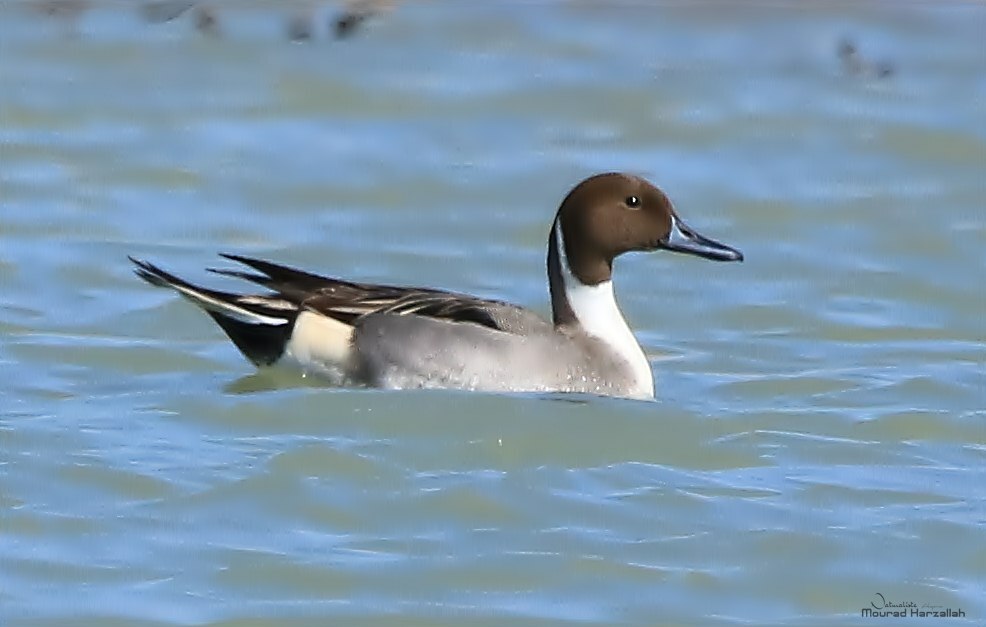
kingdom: Animalia
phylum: Chordata
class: Aves
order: Anseriformes
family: Anatidae
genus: Anas
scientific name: Anas acuta
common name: Northern pintail
